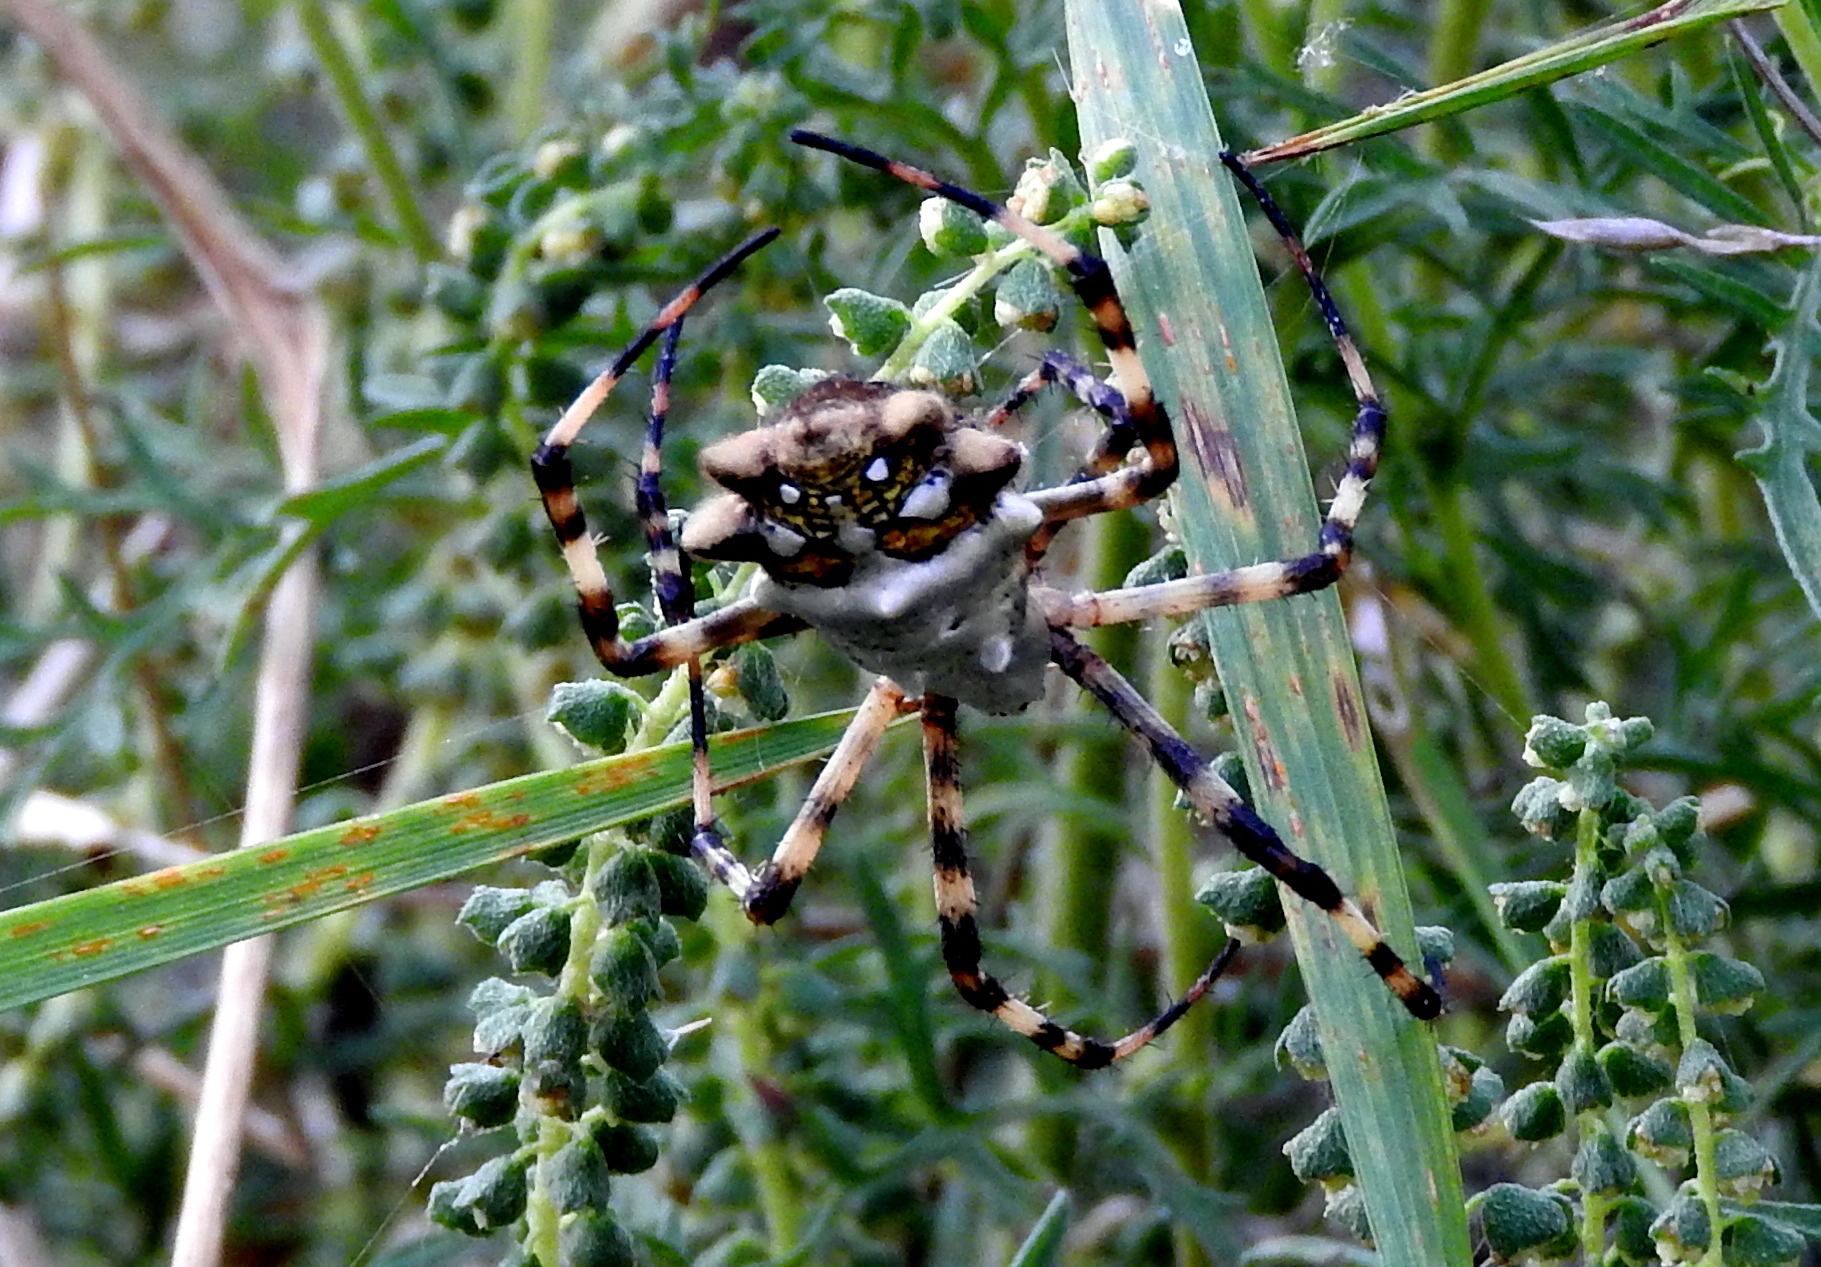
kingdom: Animalia
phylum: Arthropoda
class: Arachnida
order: Araneae
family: Araneidae
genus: Argiope
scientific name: Argiope argentata
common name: Orb weavers
